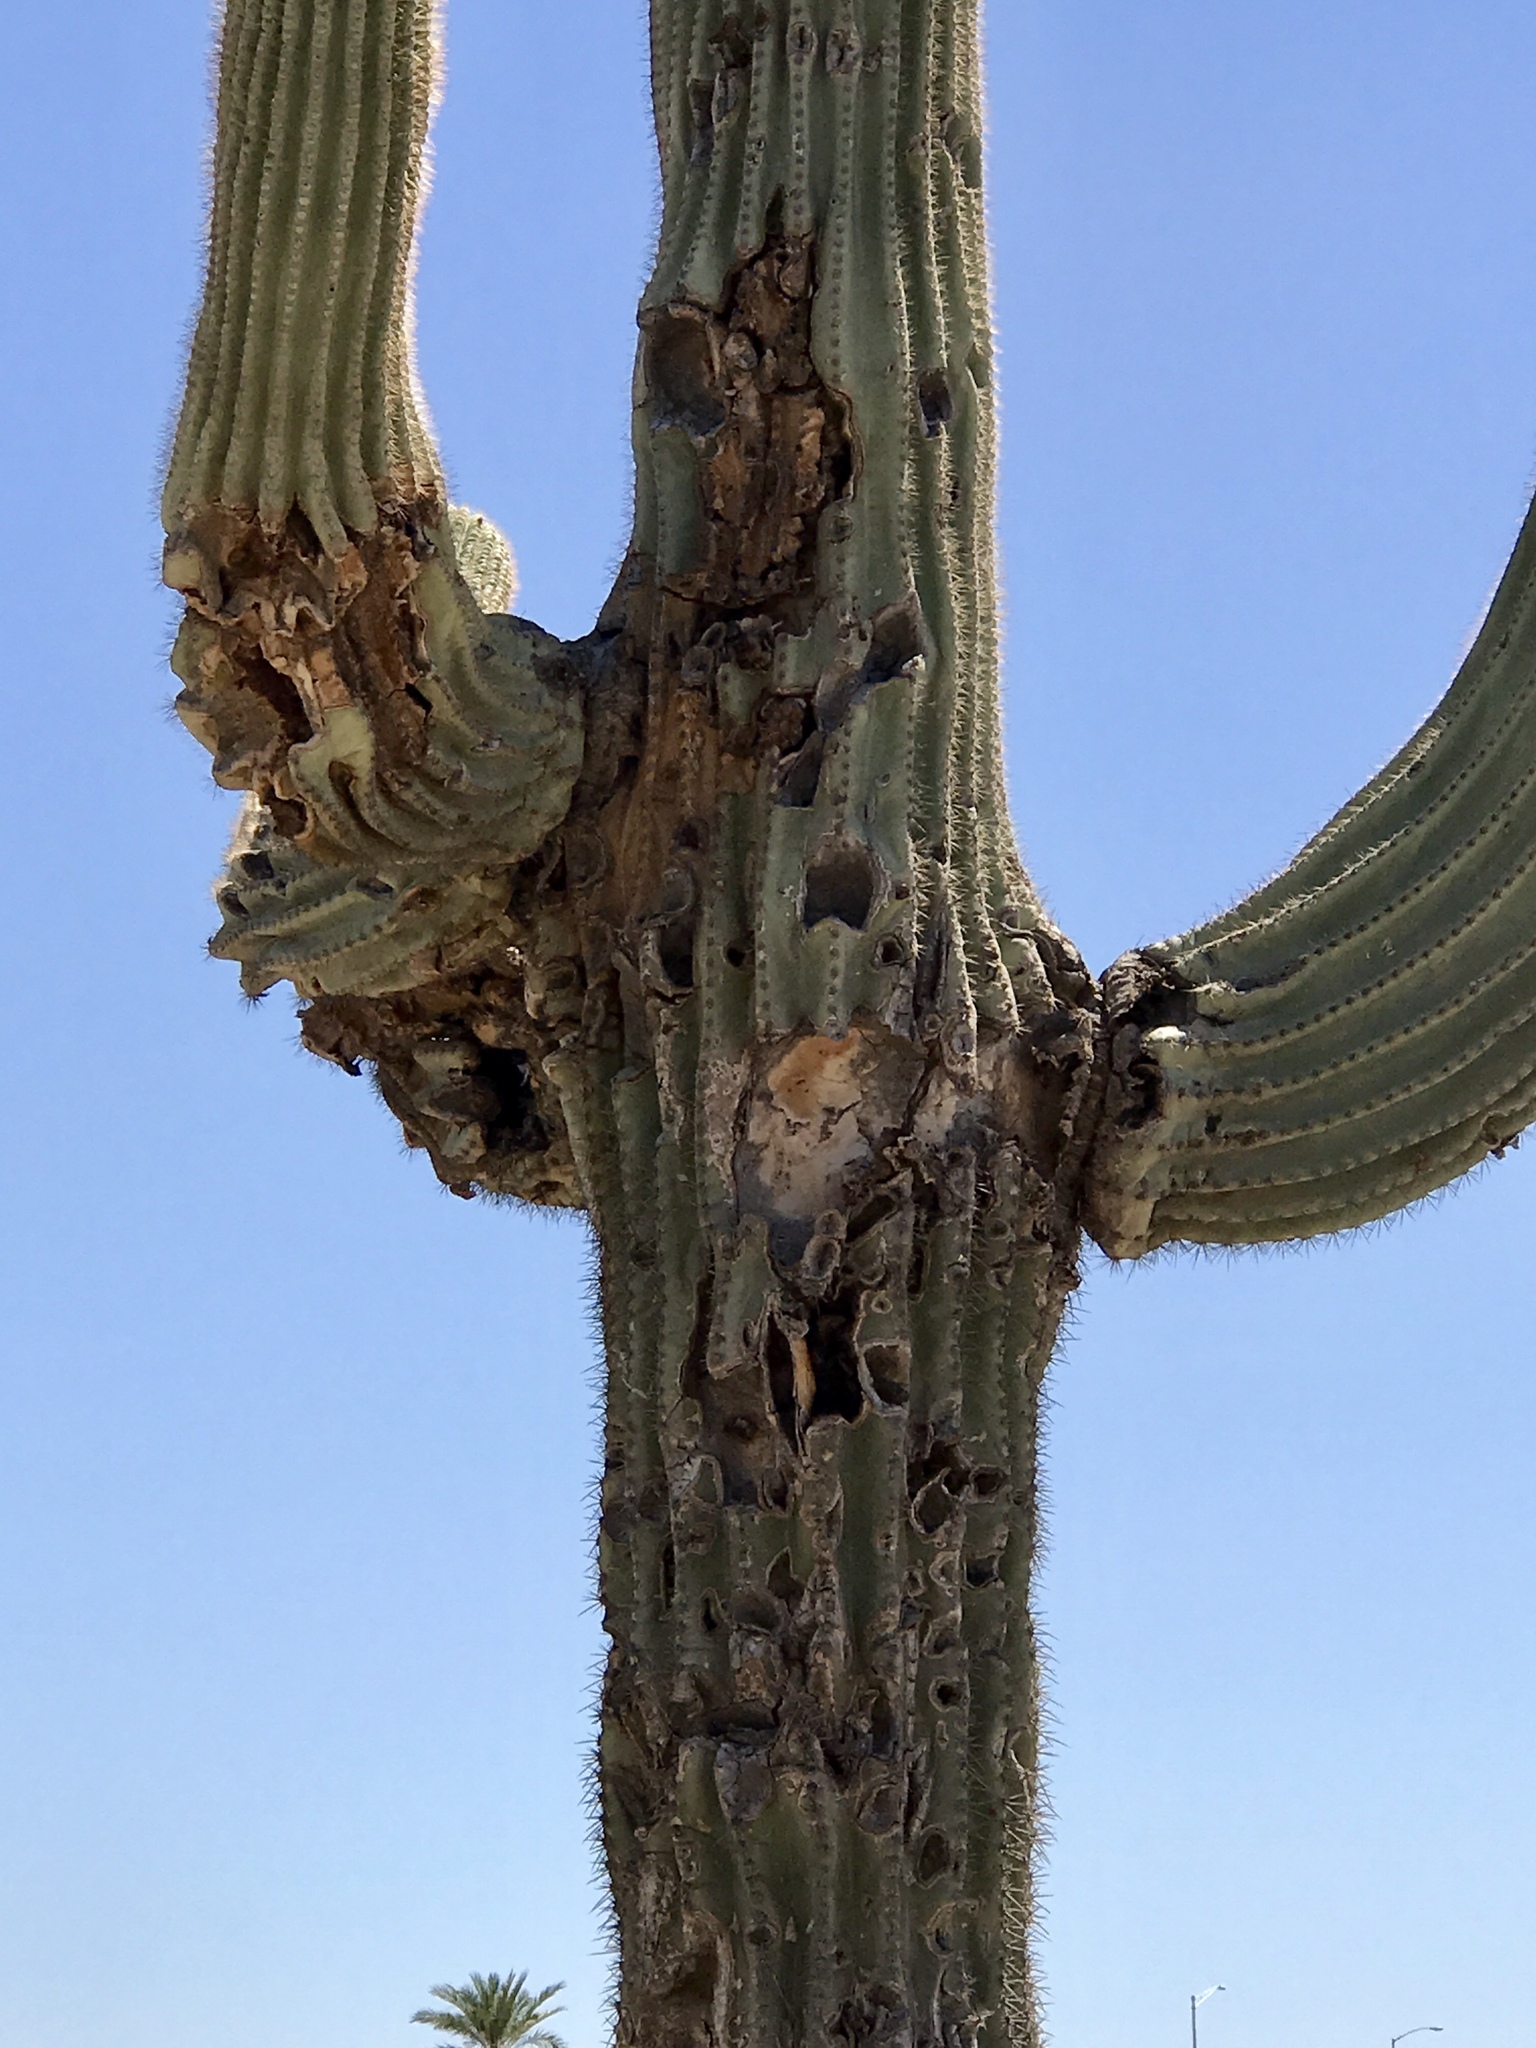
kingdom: Plantae
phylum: Tracheophyta
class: Magnoliopsida
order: Caryophyllales
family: Cactaceae
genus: Carnegiea
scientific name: Carnegiea gigantea
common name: Saguaro
